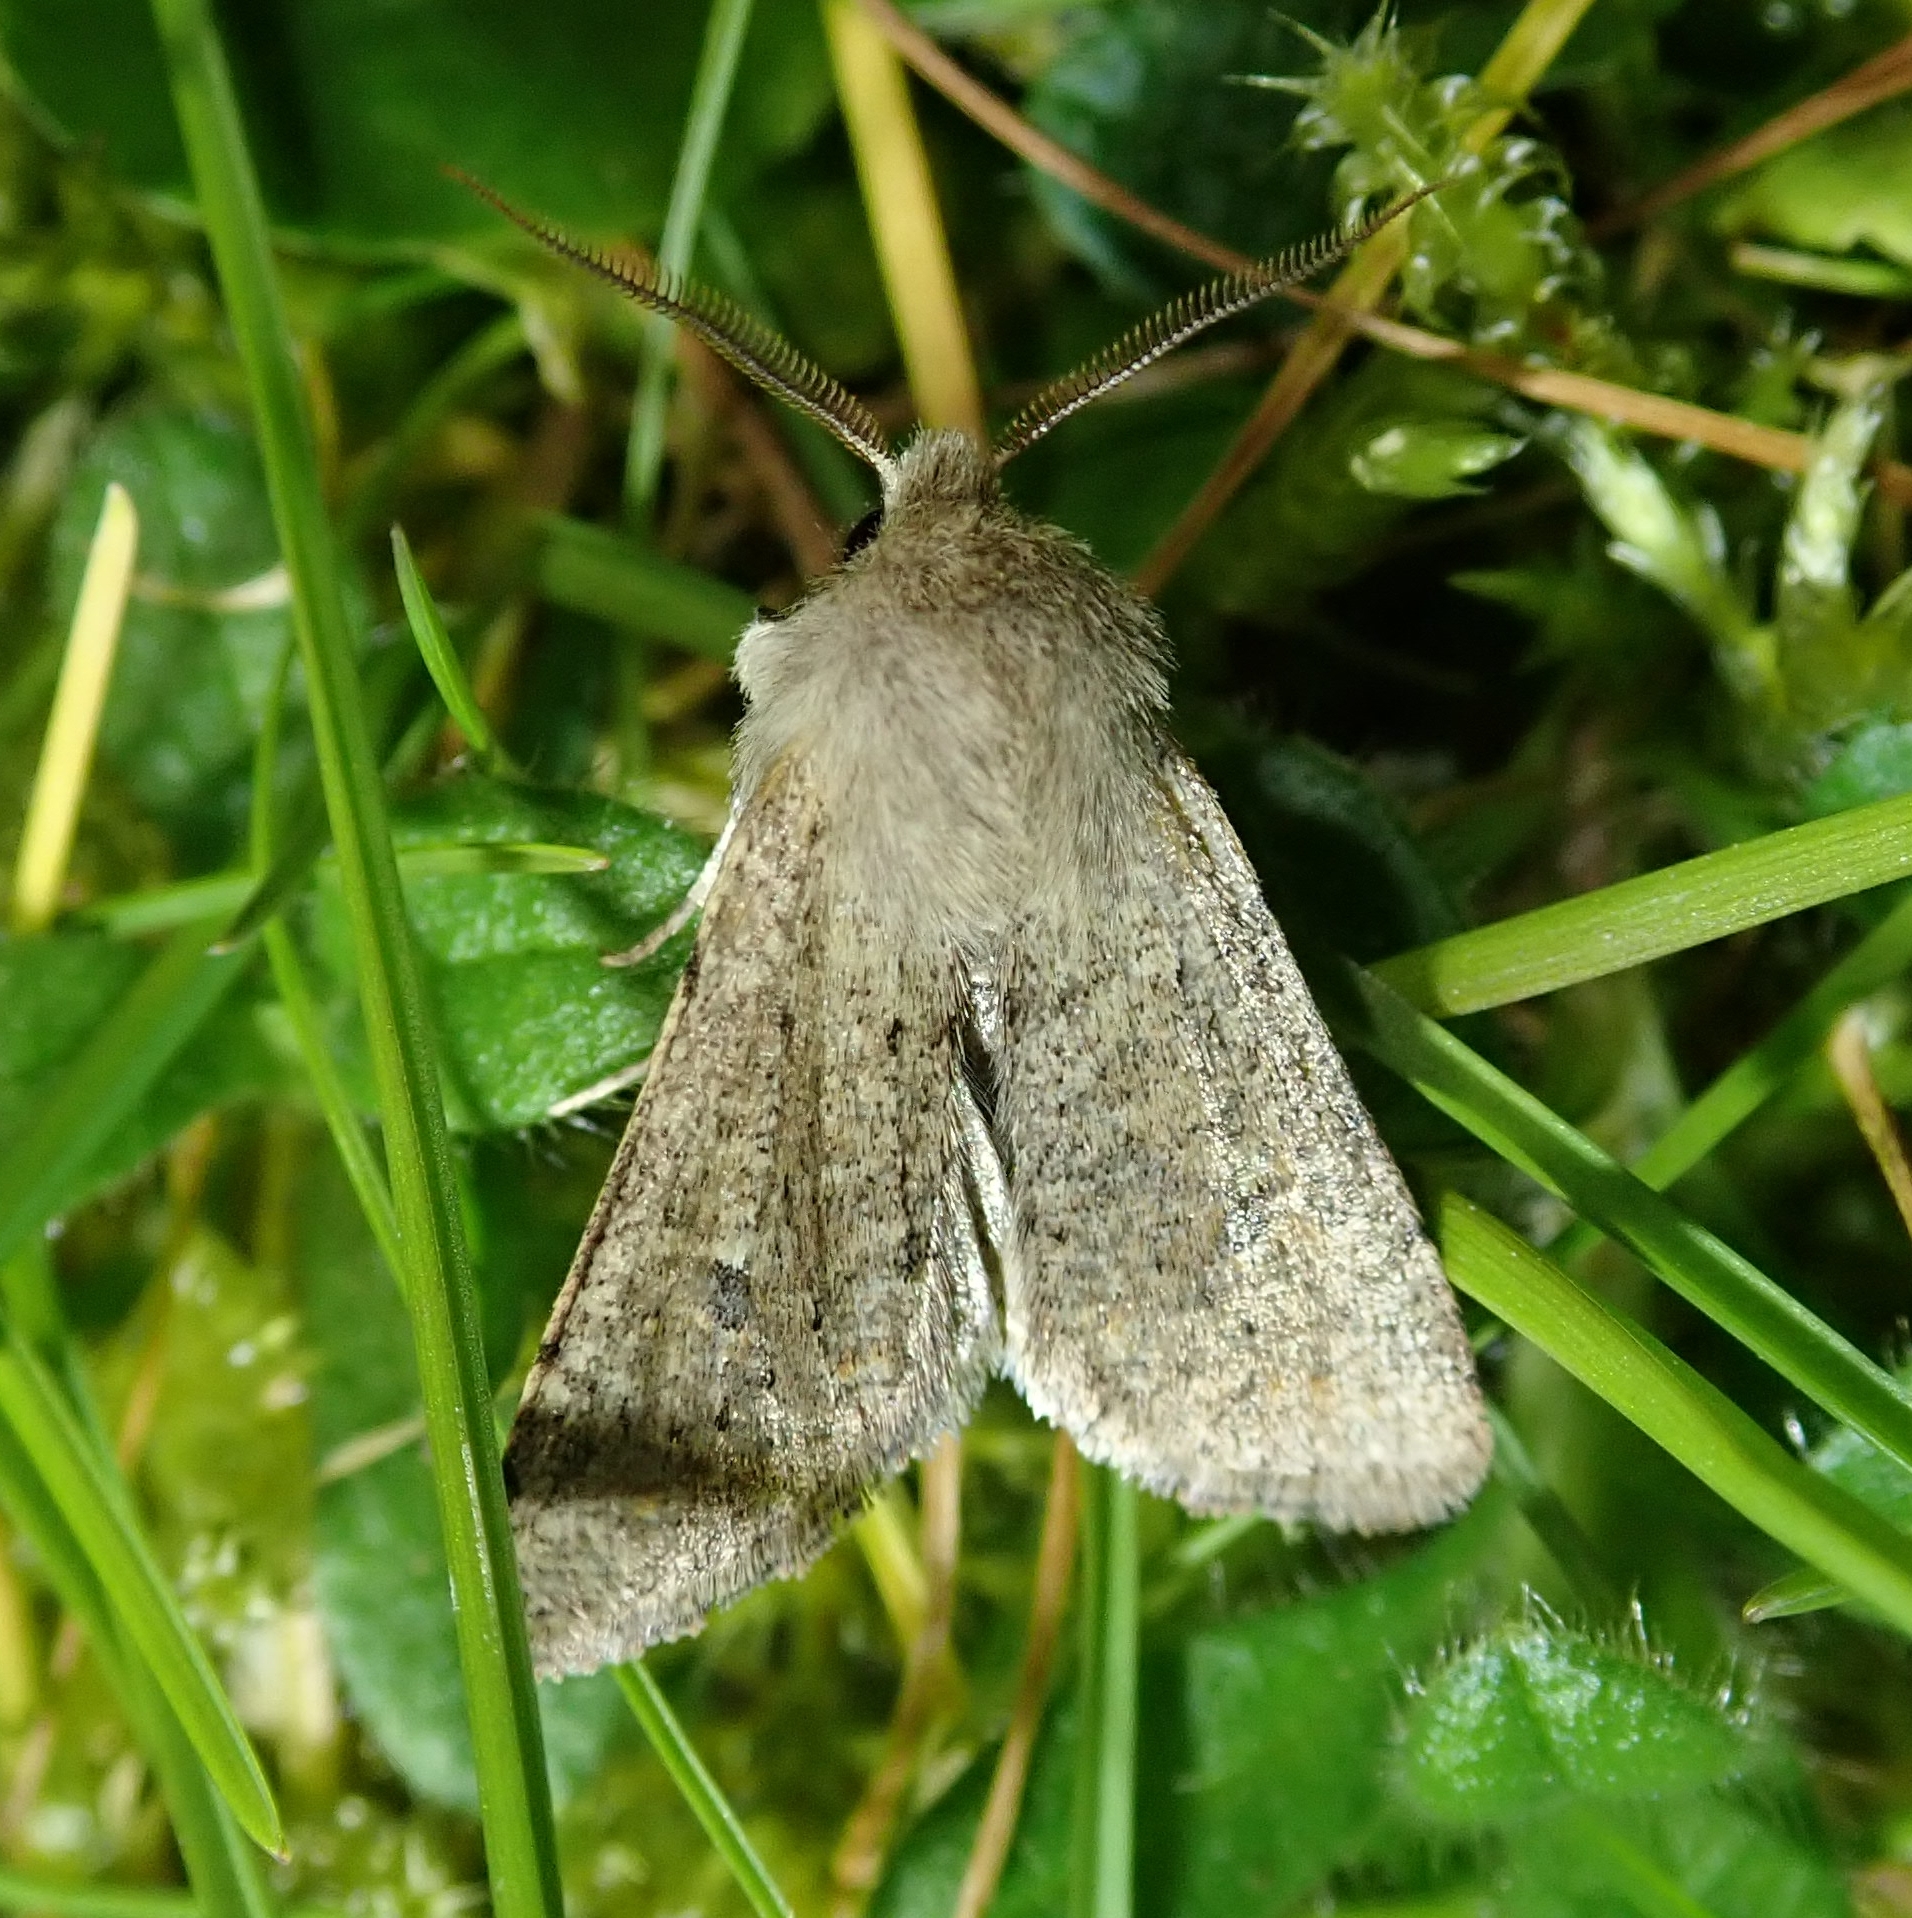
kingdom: Animalia
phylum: Arthropoda
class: Insecta
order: Lepidoptera
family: Noctuidae
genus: Orthosia
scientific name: Orthosia cruda
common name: Small quaker
